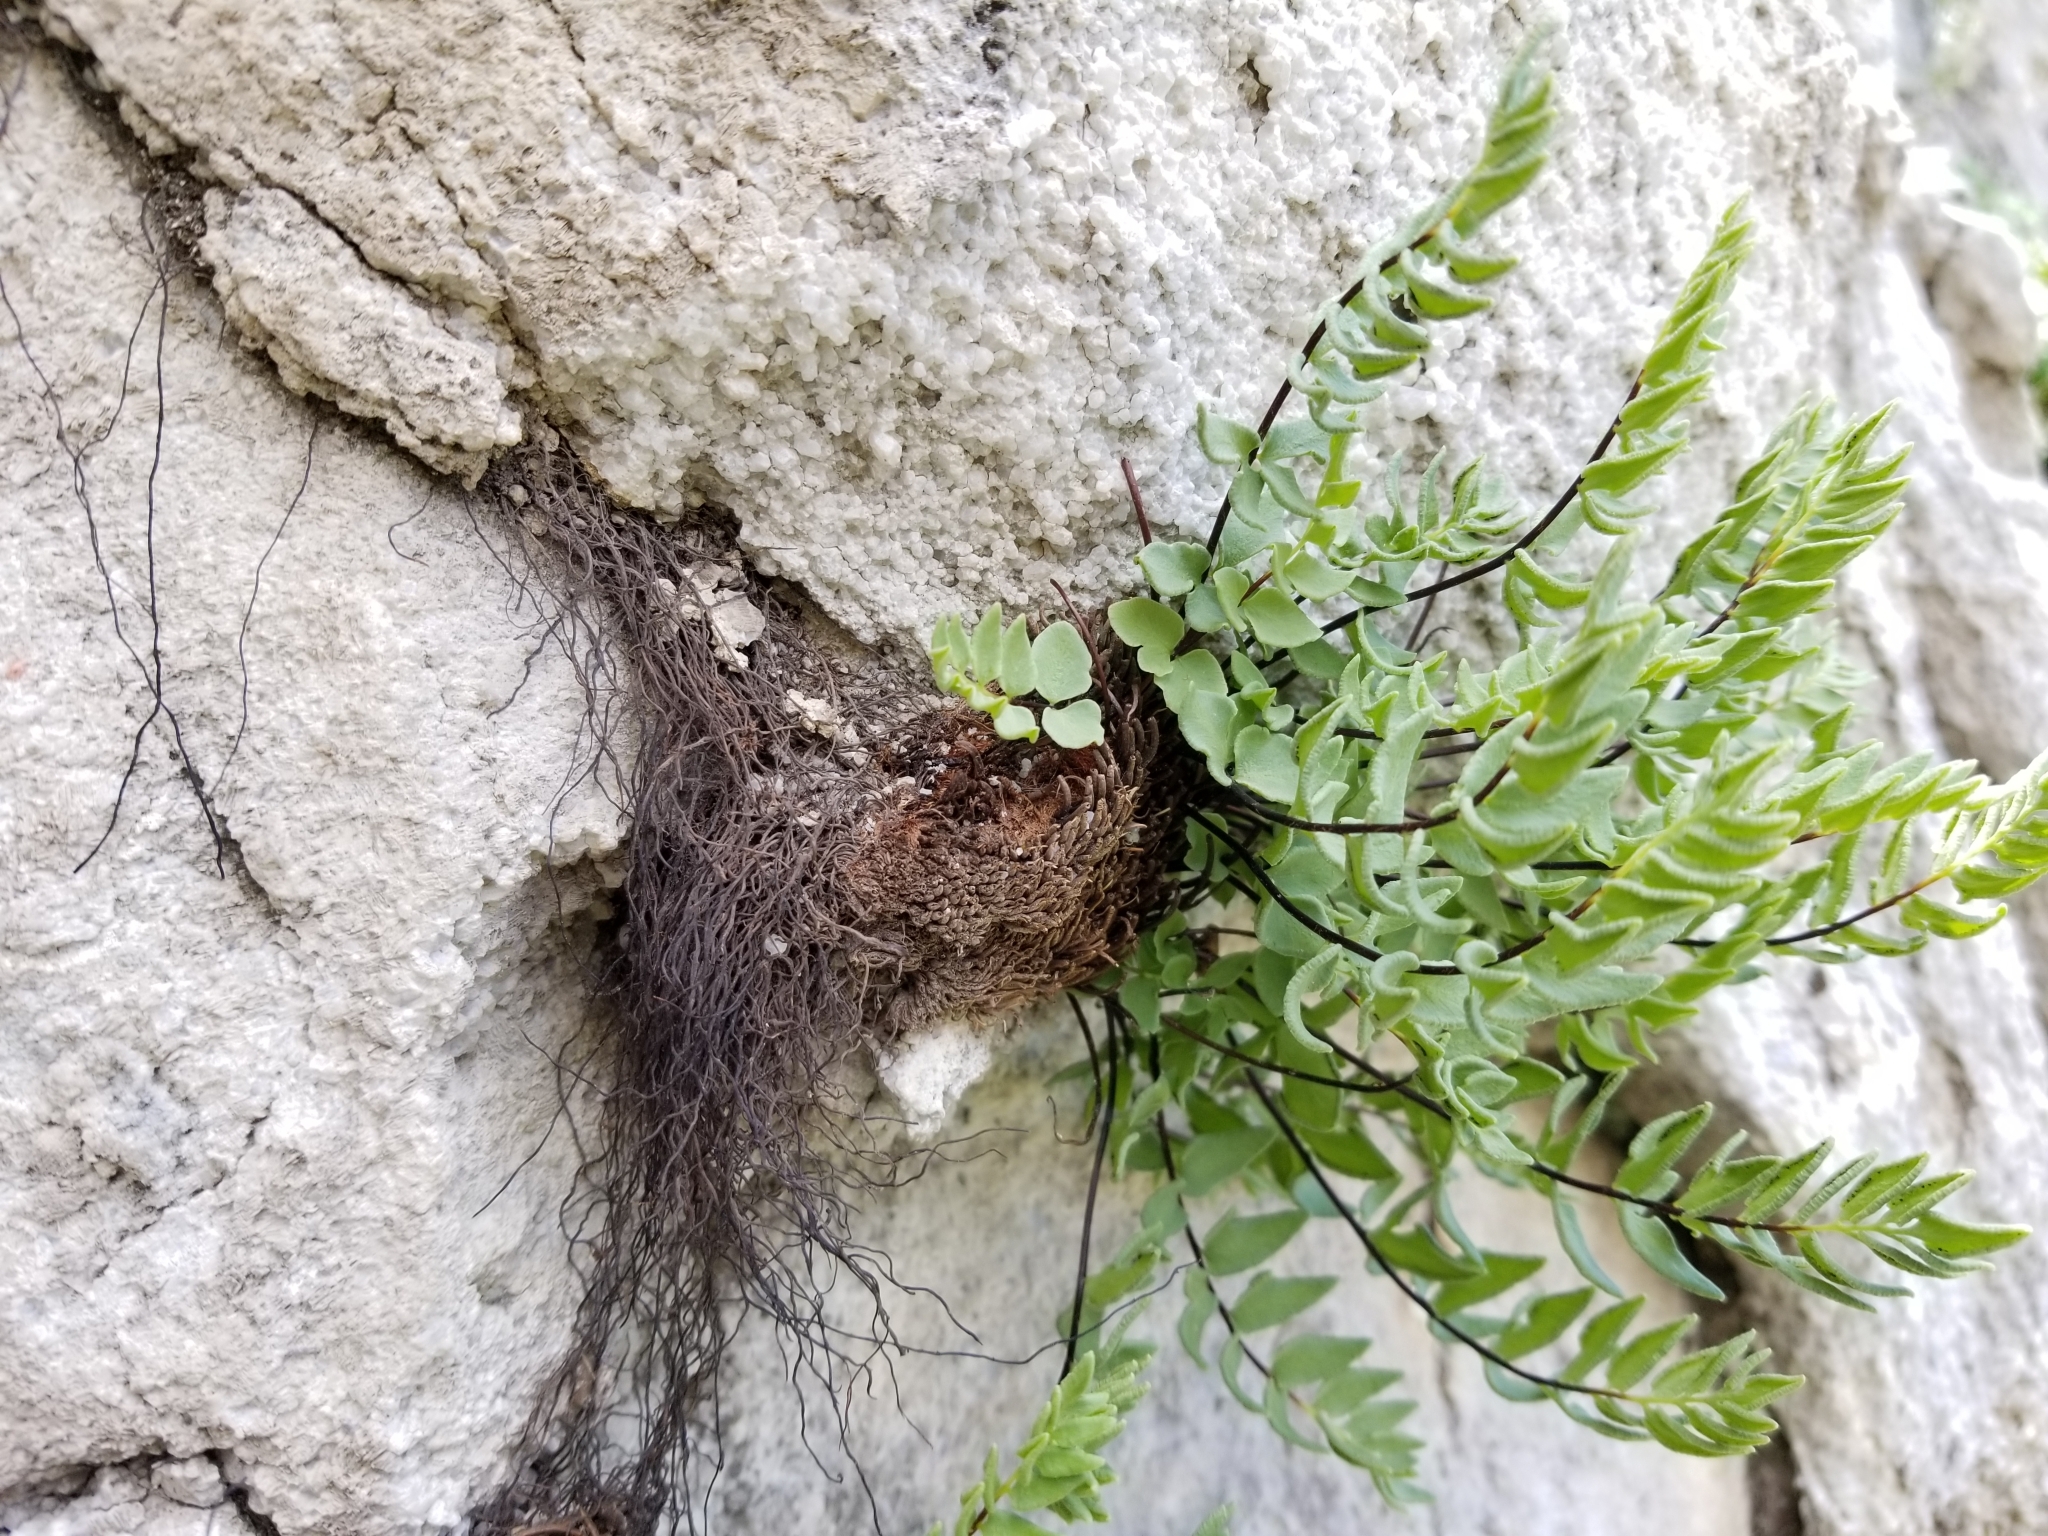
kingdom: Plantae
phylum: Tracheophyta
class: Polypodiopsida
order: Polypodiales
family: Pteridaceae
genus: Pellaea
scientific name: Pellaea breweri
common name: Brewer's cliffbrake
